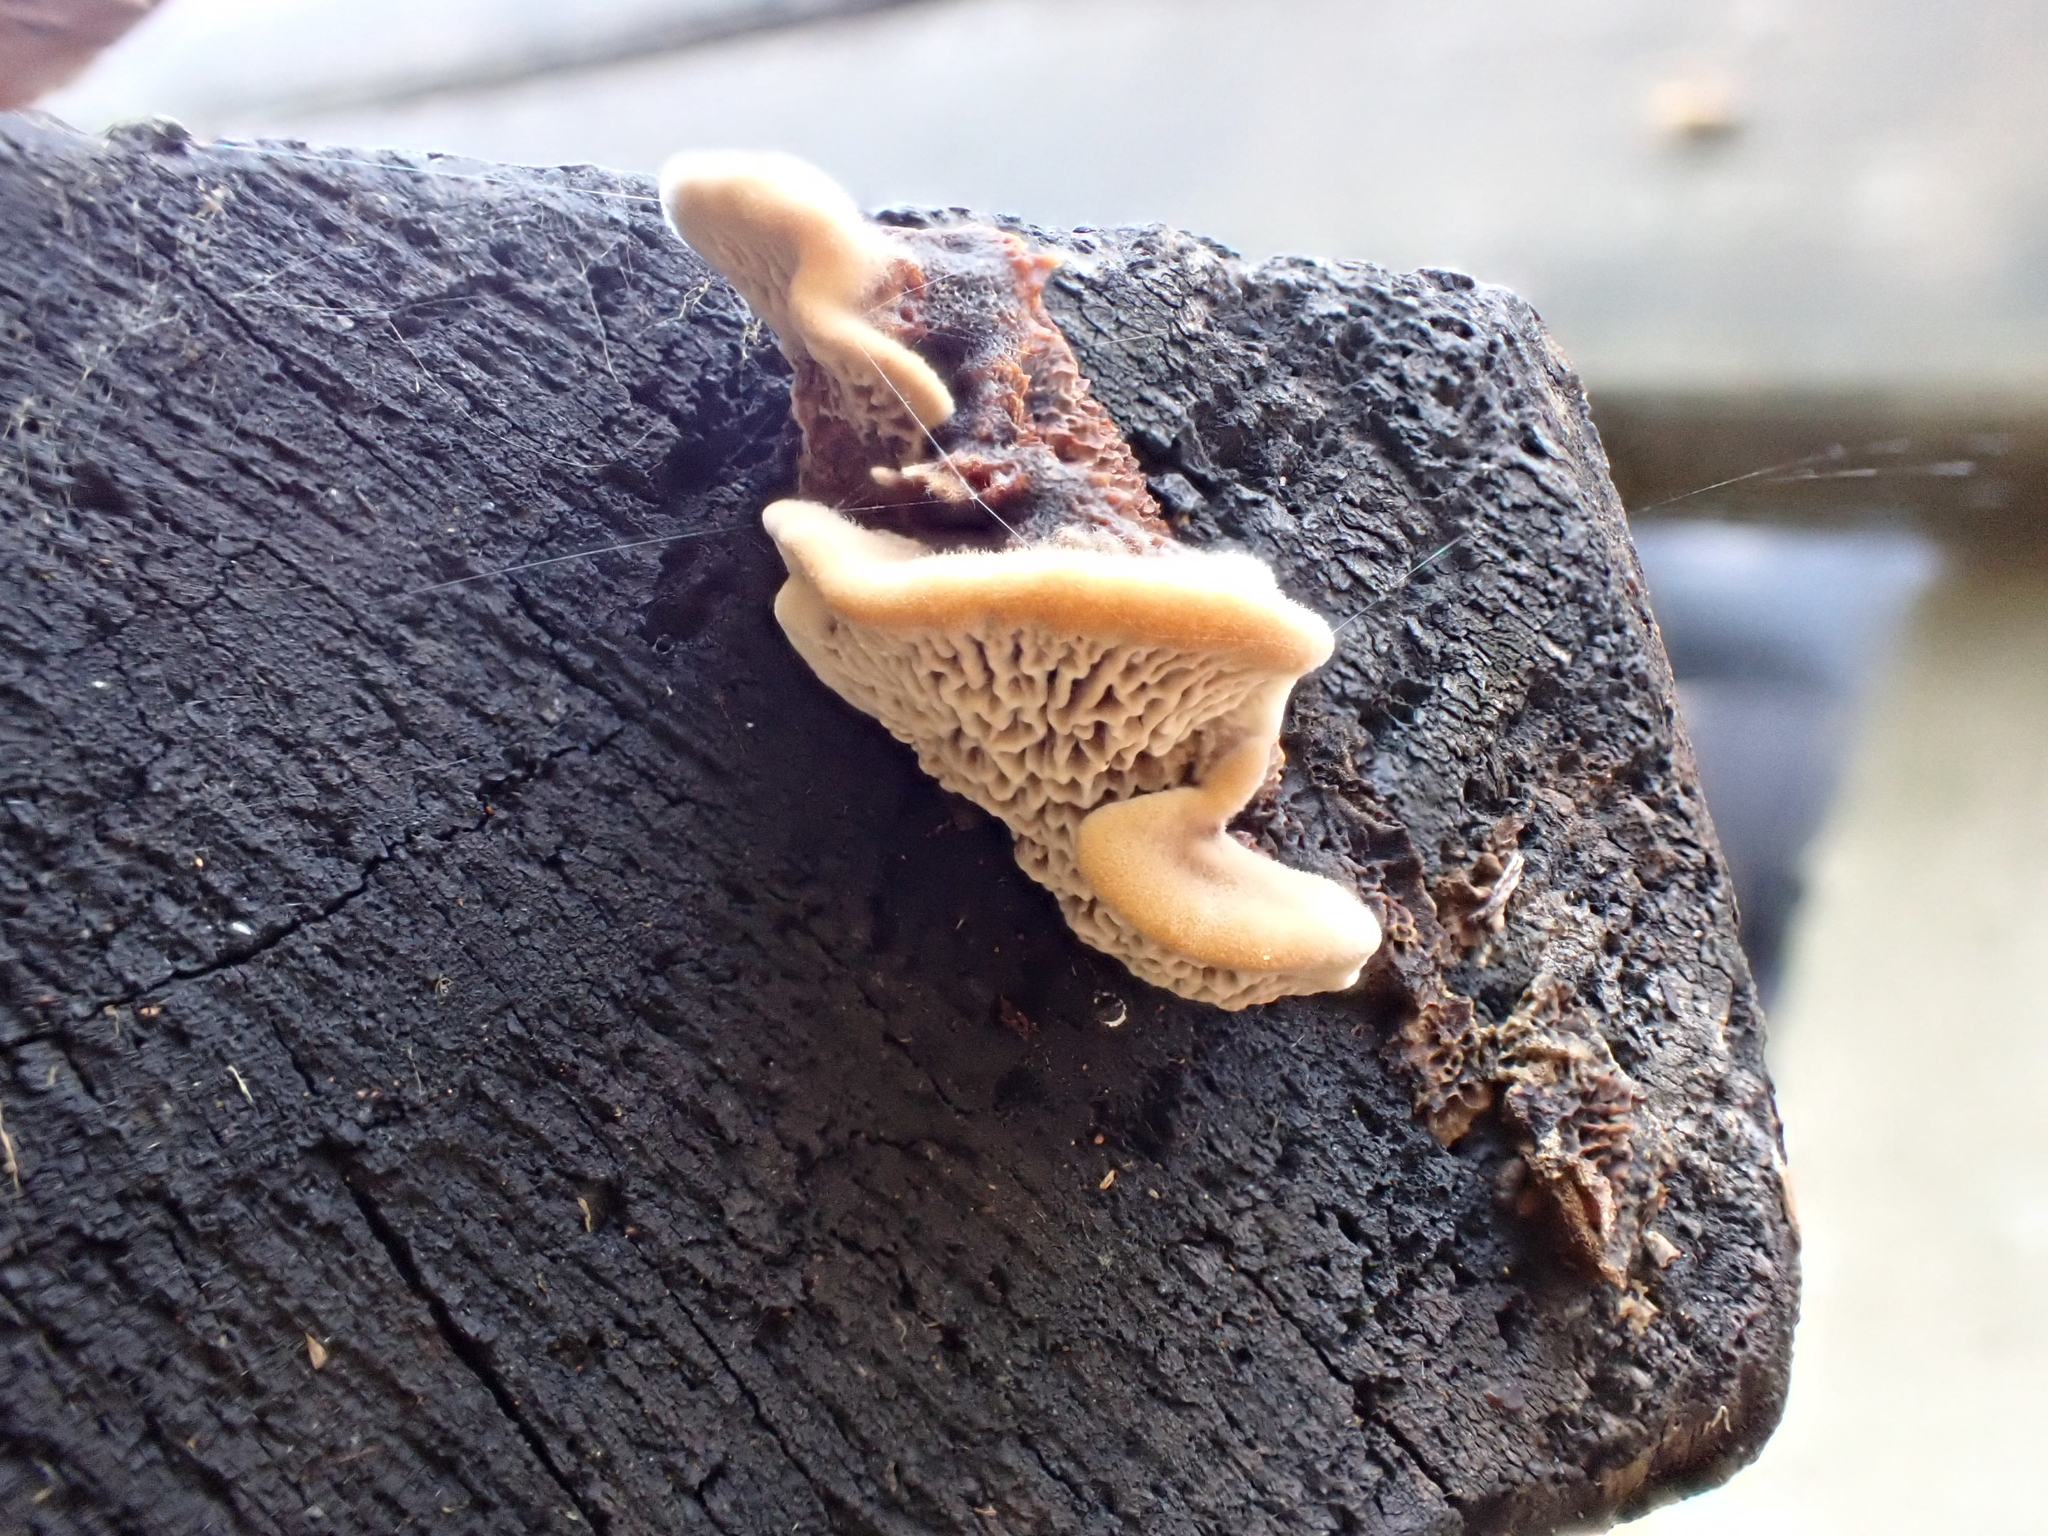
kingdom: Fungi
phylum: Basidiomycota
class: Agaricomycetes
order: Polyporales
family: Fomitopsidaceae
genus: Fomitopsis
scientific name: Fomitopsis
